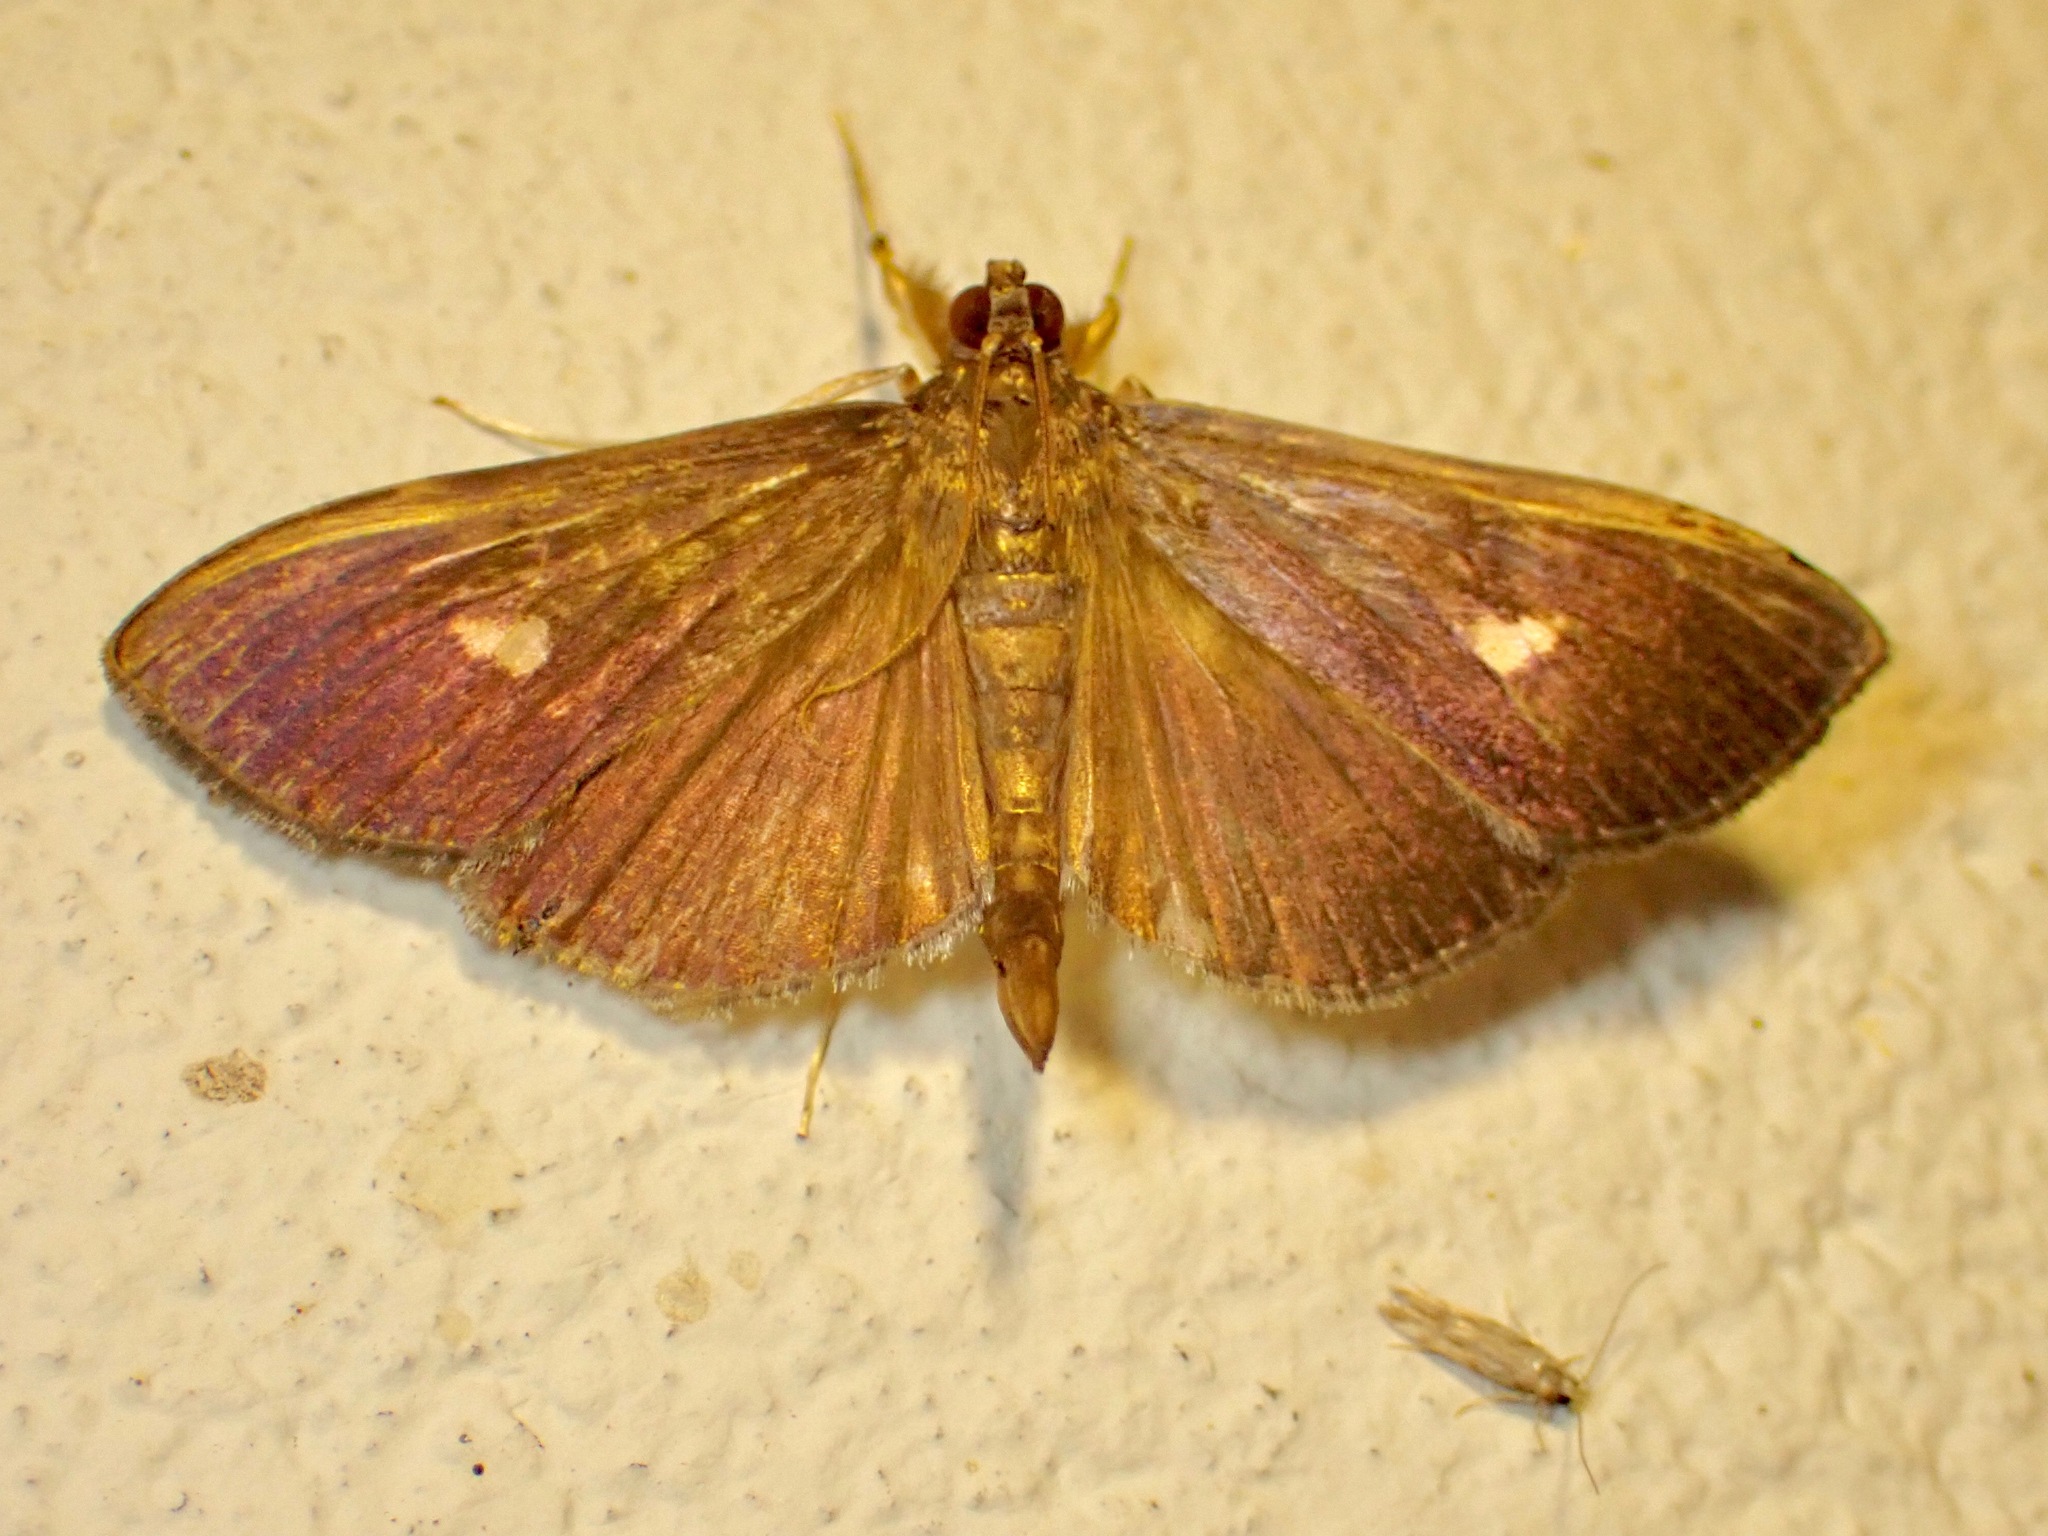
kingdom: Animalia
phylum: Arthropoda
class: Insecta
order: Lepidoptera
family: Crambidae
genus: Phostria
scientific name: Phostria Erilusa leucoplagialis
